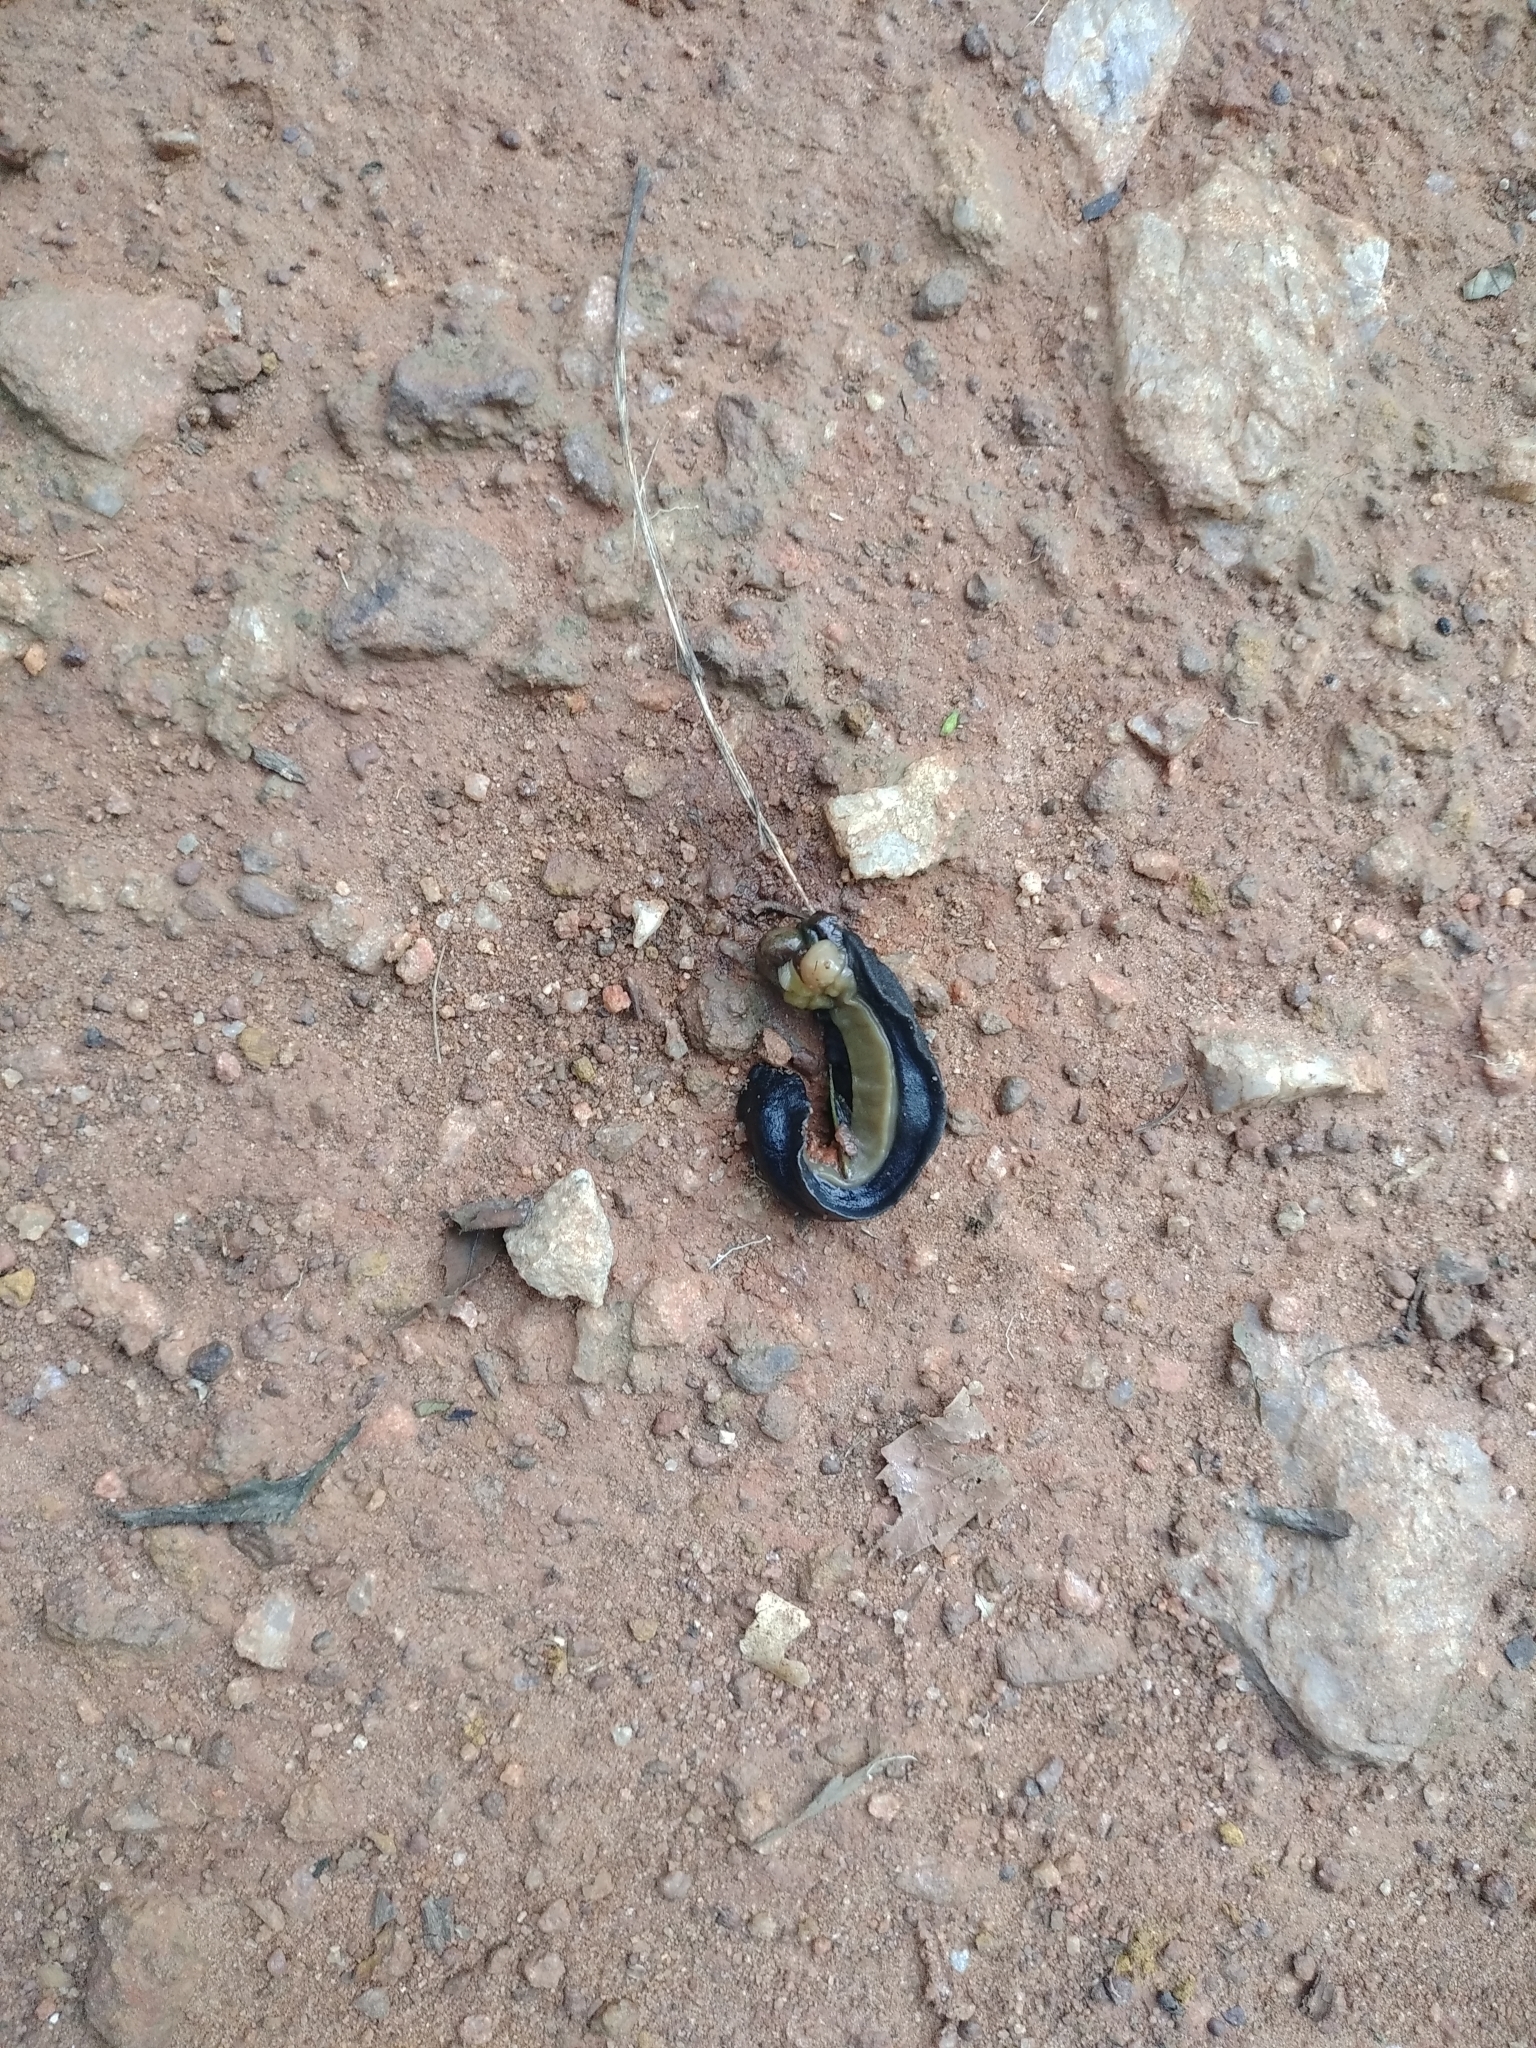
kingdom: Animalia
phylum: Mollusca
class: Gastropoda
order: Systellommatophora
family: Veronicellidae
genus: Laevicaulis
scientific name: Laevicaulis alte
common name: Tropical leatherleaf
